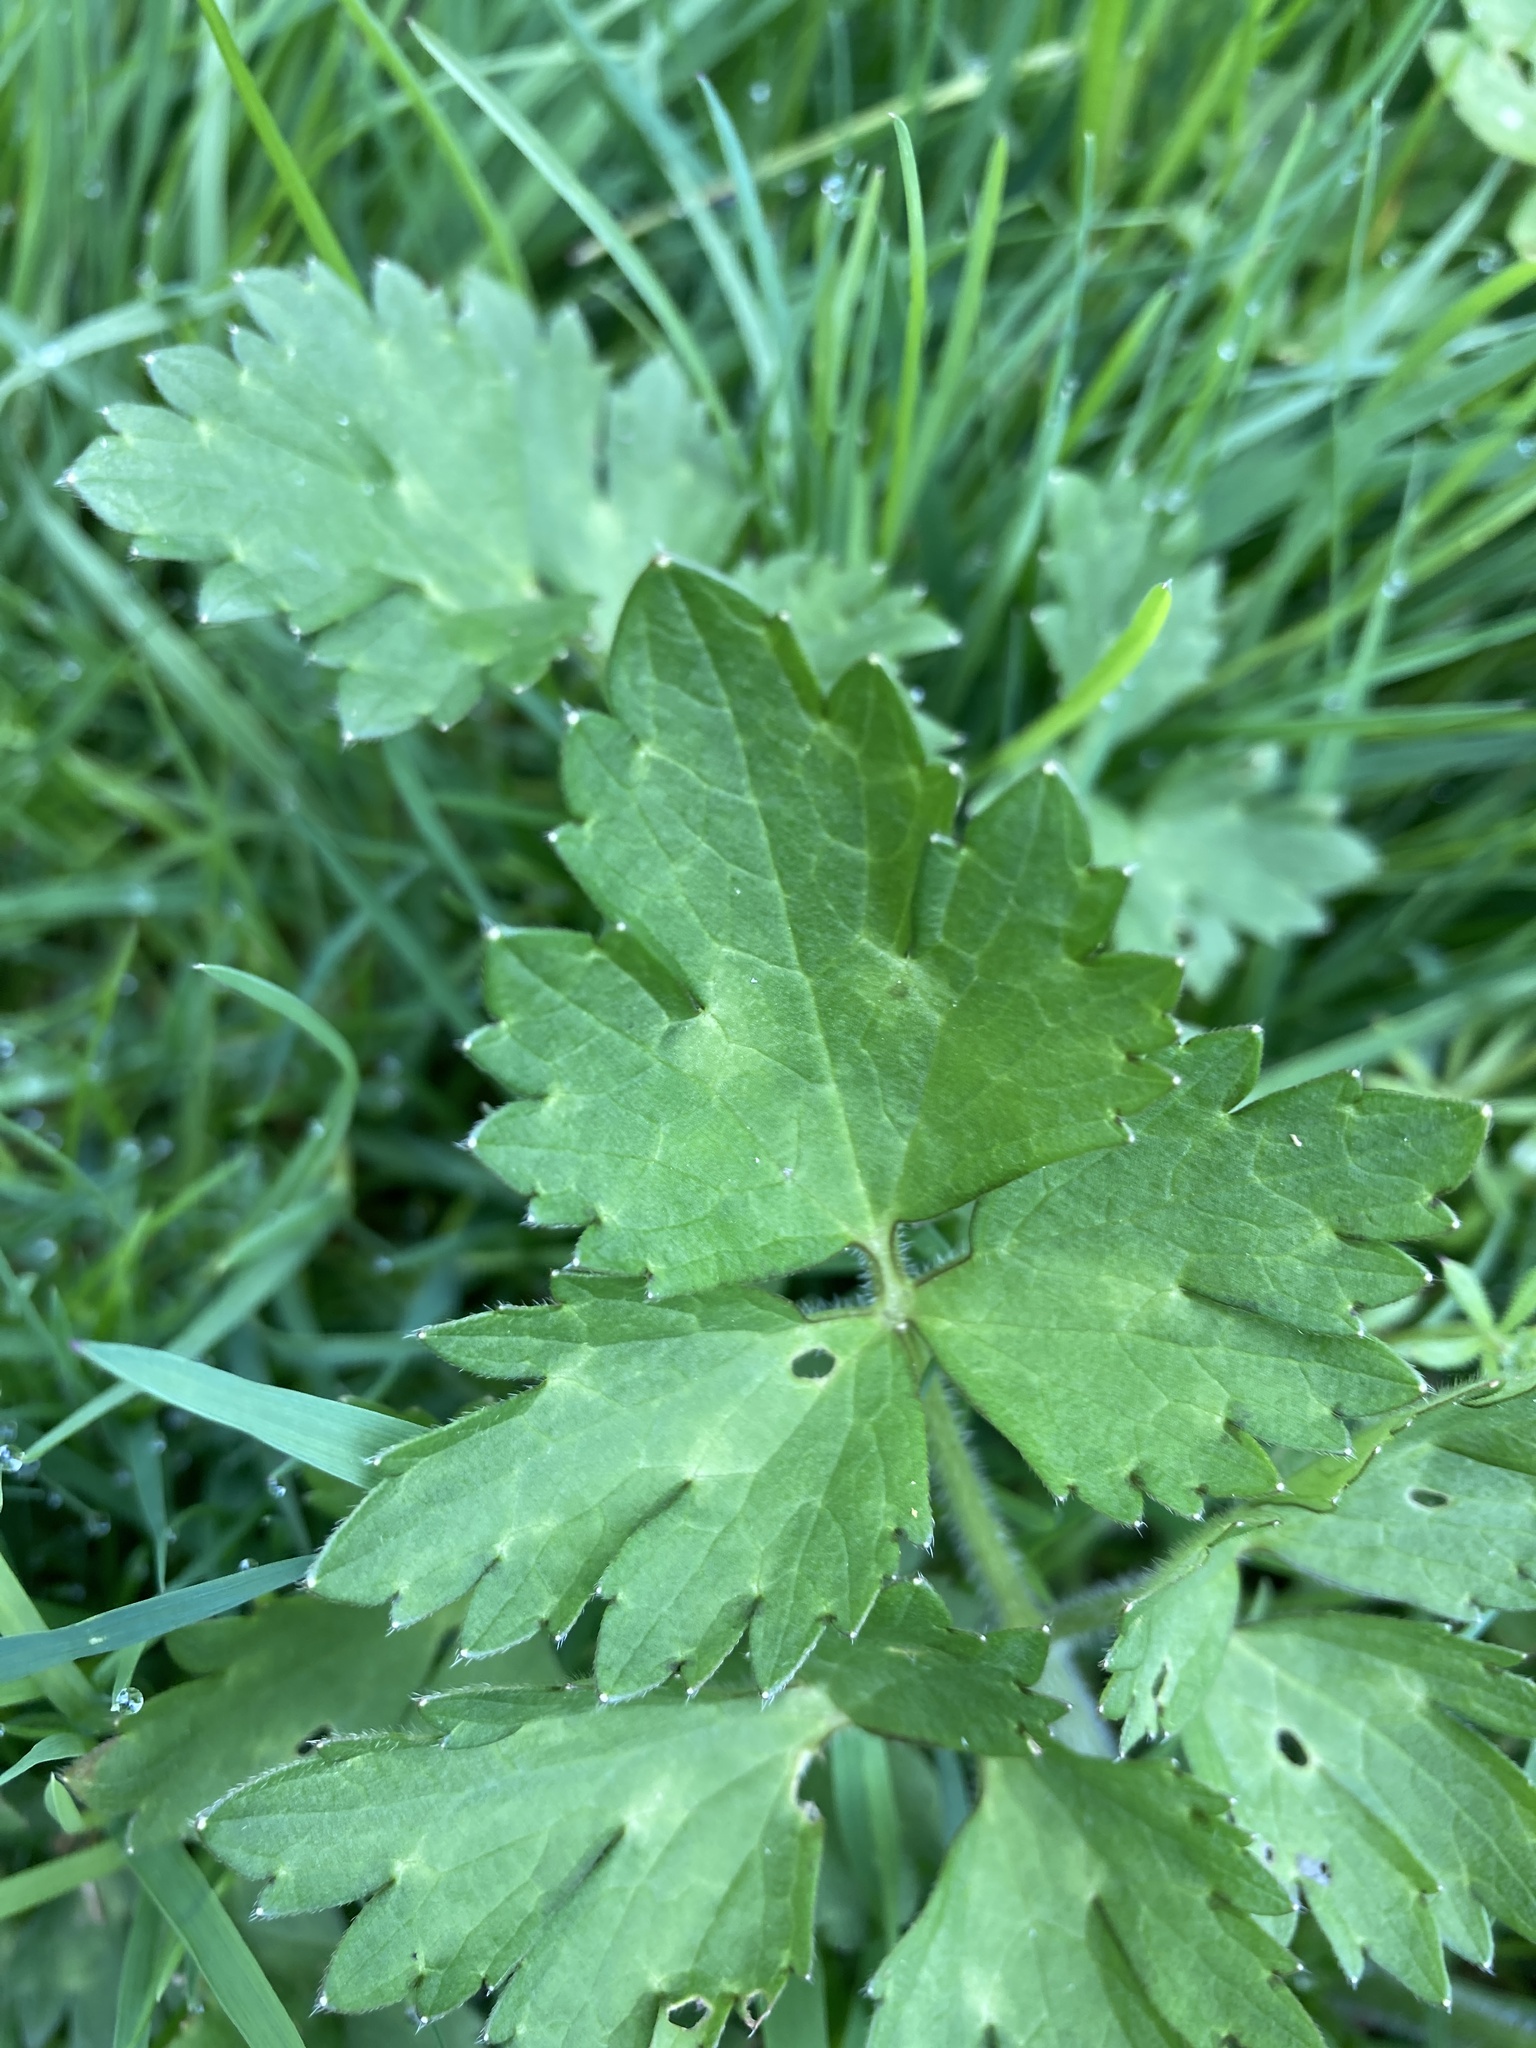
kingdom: Plantae
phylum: Tracheophyta
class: Magnoliopsida
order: Ranunculales
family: Ranunculaceae
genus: Ranunculus
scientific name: Ranunculus repens
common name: Creeping buttercup
